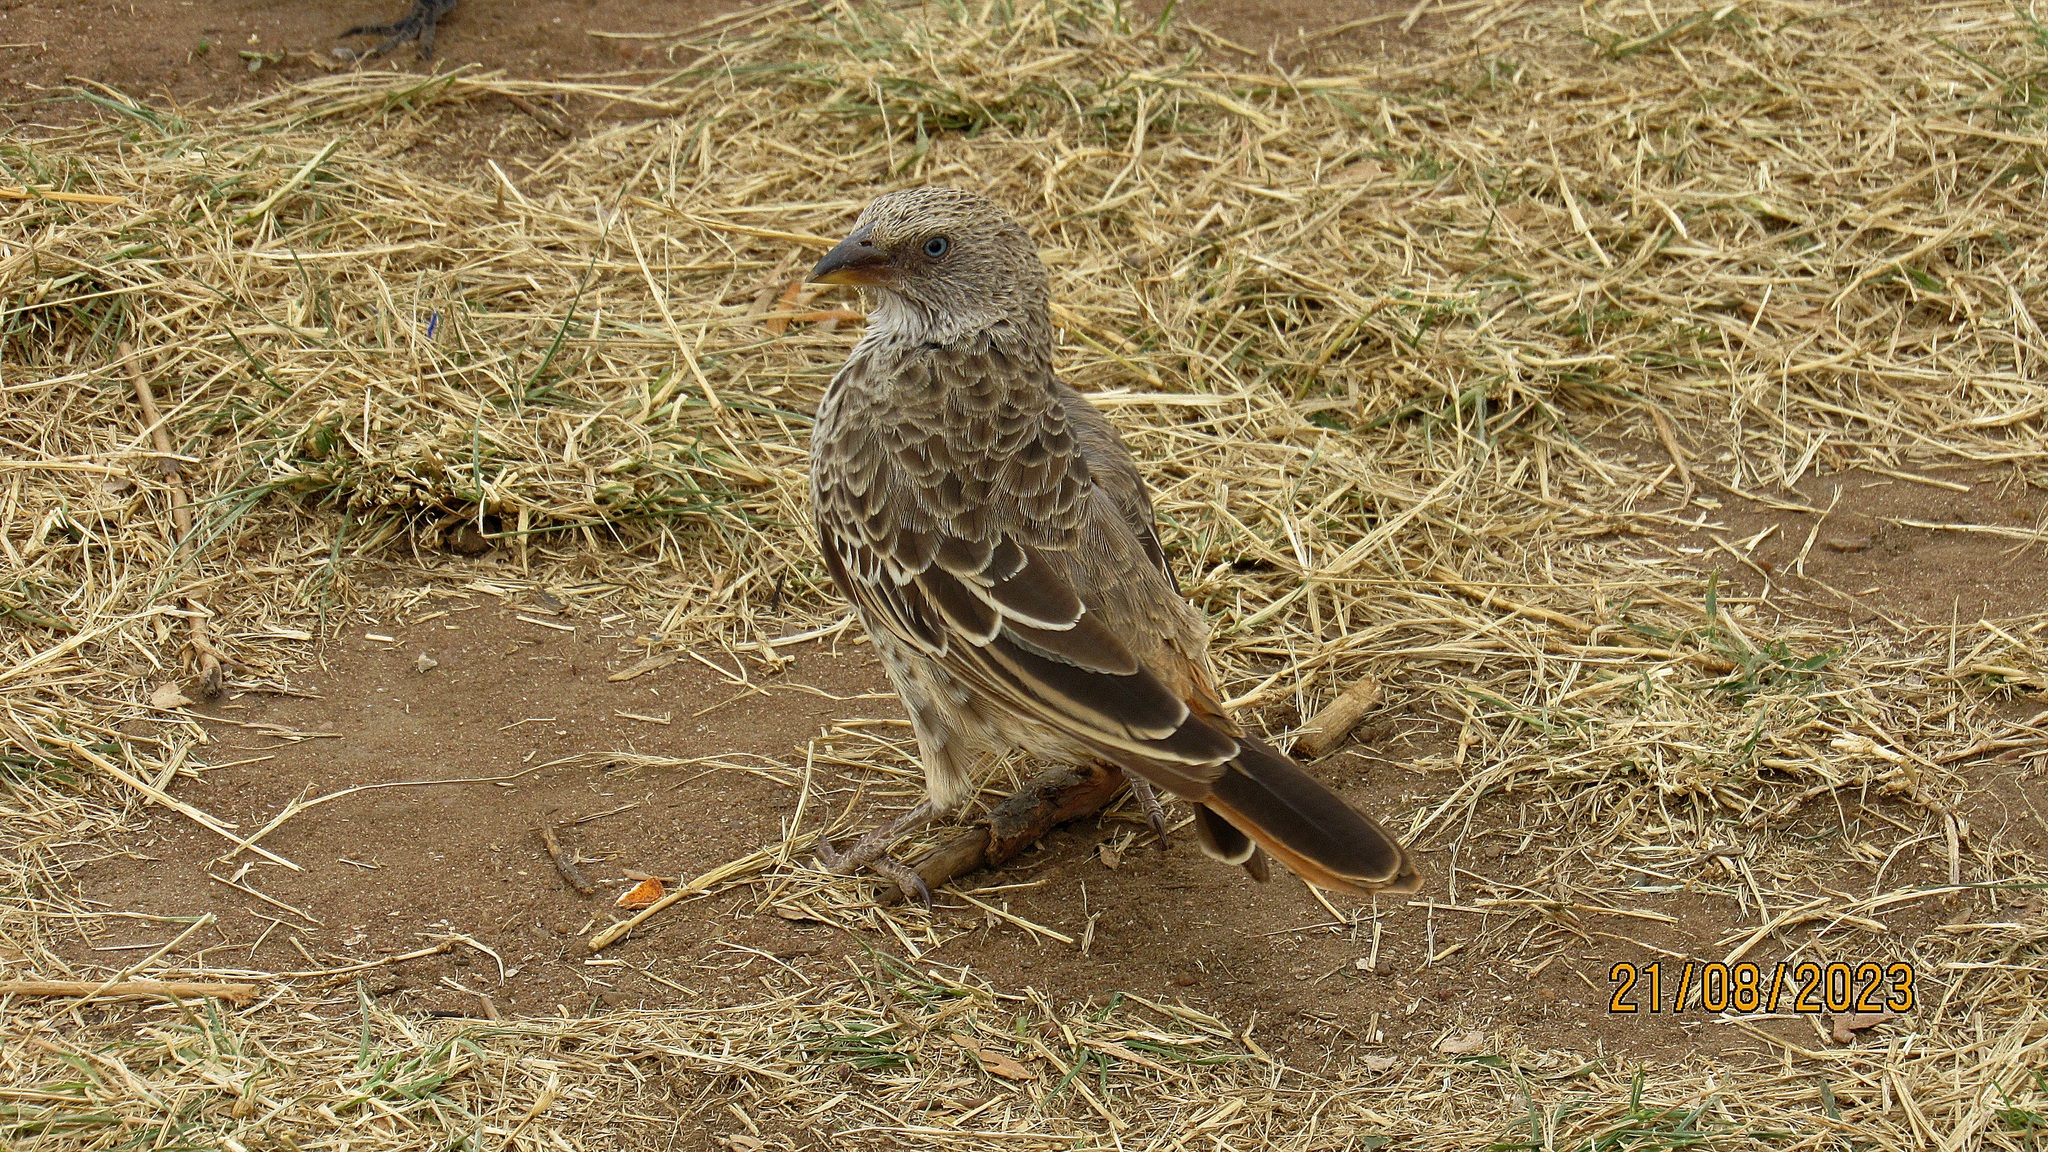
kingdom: Animalia
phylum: Chordata
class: Aves
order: Passeriformes
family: Passeridae
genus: Histurgops
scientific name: Histurgops ruficauda
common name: Rufous-tailed weaver
